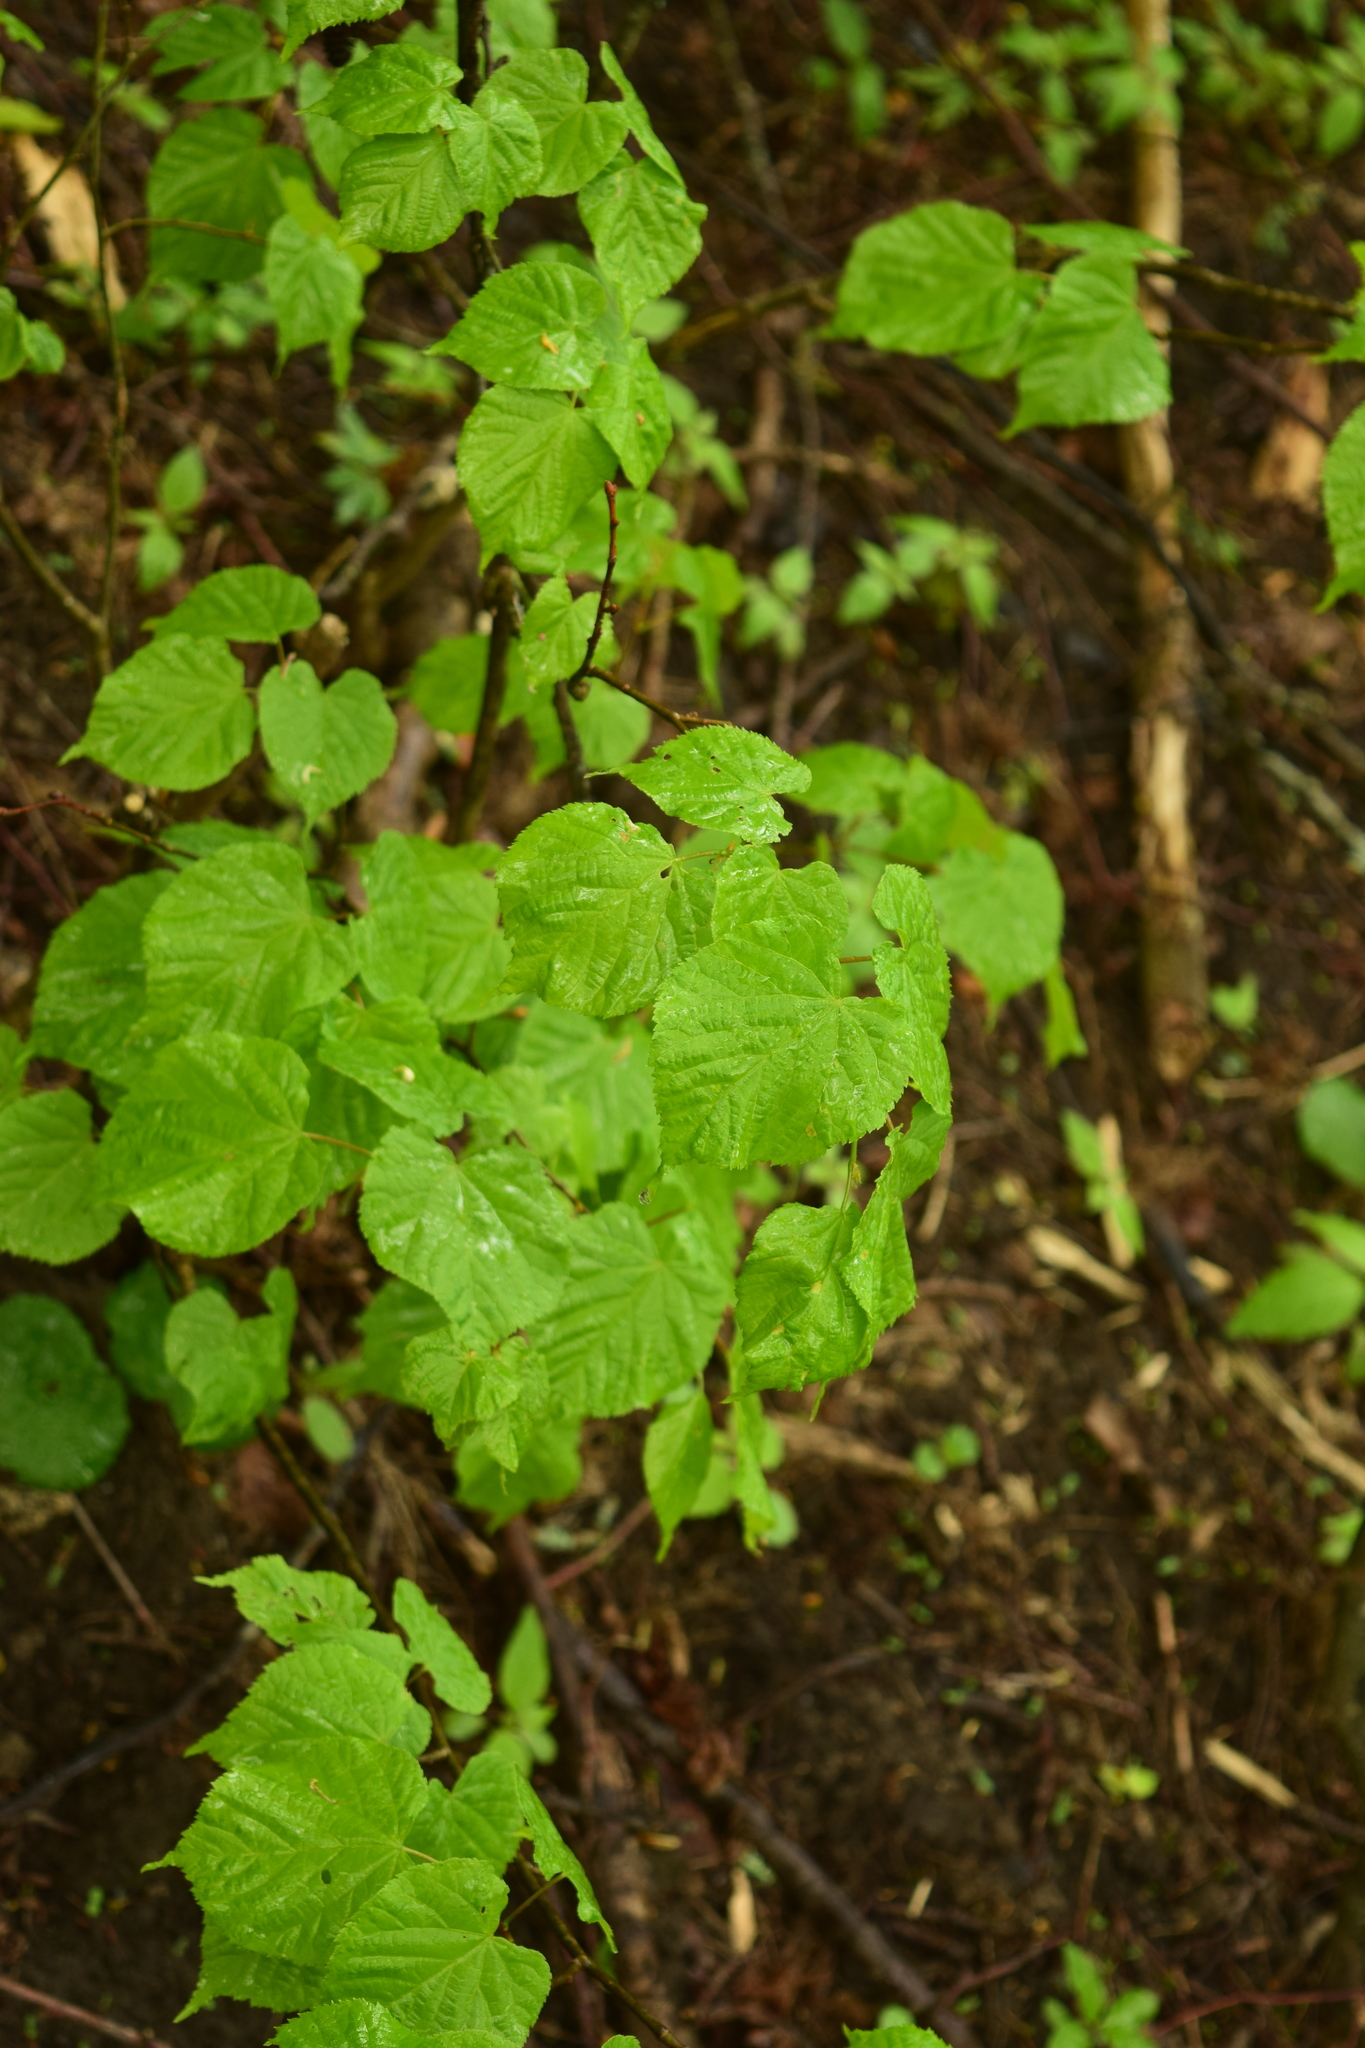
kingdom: Plantae
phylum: Tracheophyta
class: Magnoliopsida
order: Malvales
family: Malvaceae
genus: Tilia
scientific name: Tilia cordata
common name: Small-leaved lime
